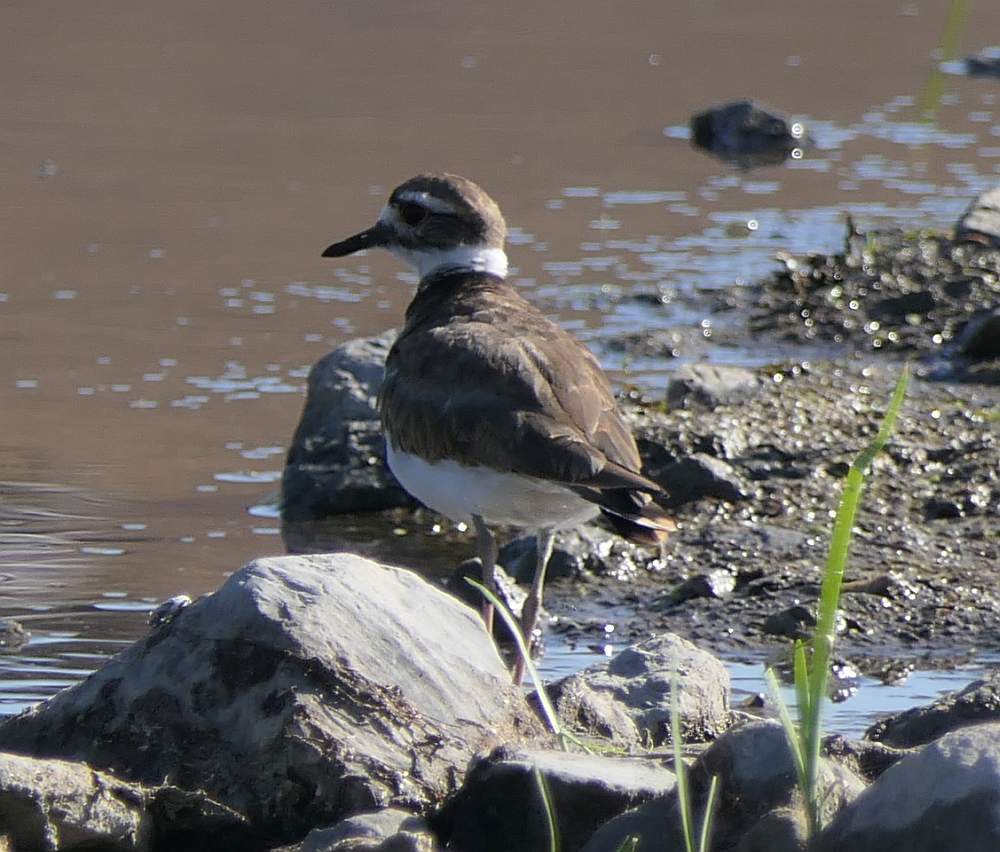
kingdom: Animalia
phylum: Chordata
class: Aves
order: Charadriiformes
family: Charadriidae
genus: Charadrius
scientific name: Charadrius vociferus
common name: Killdeer
